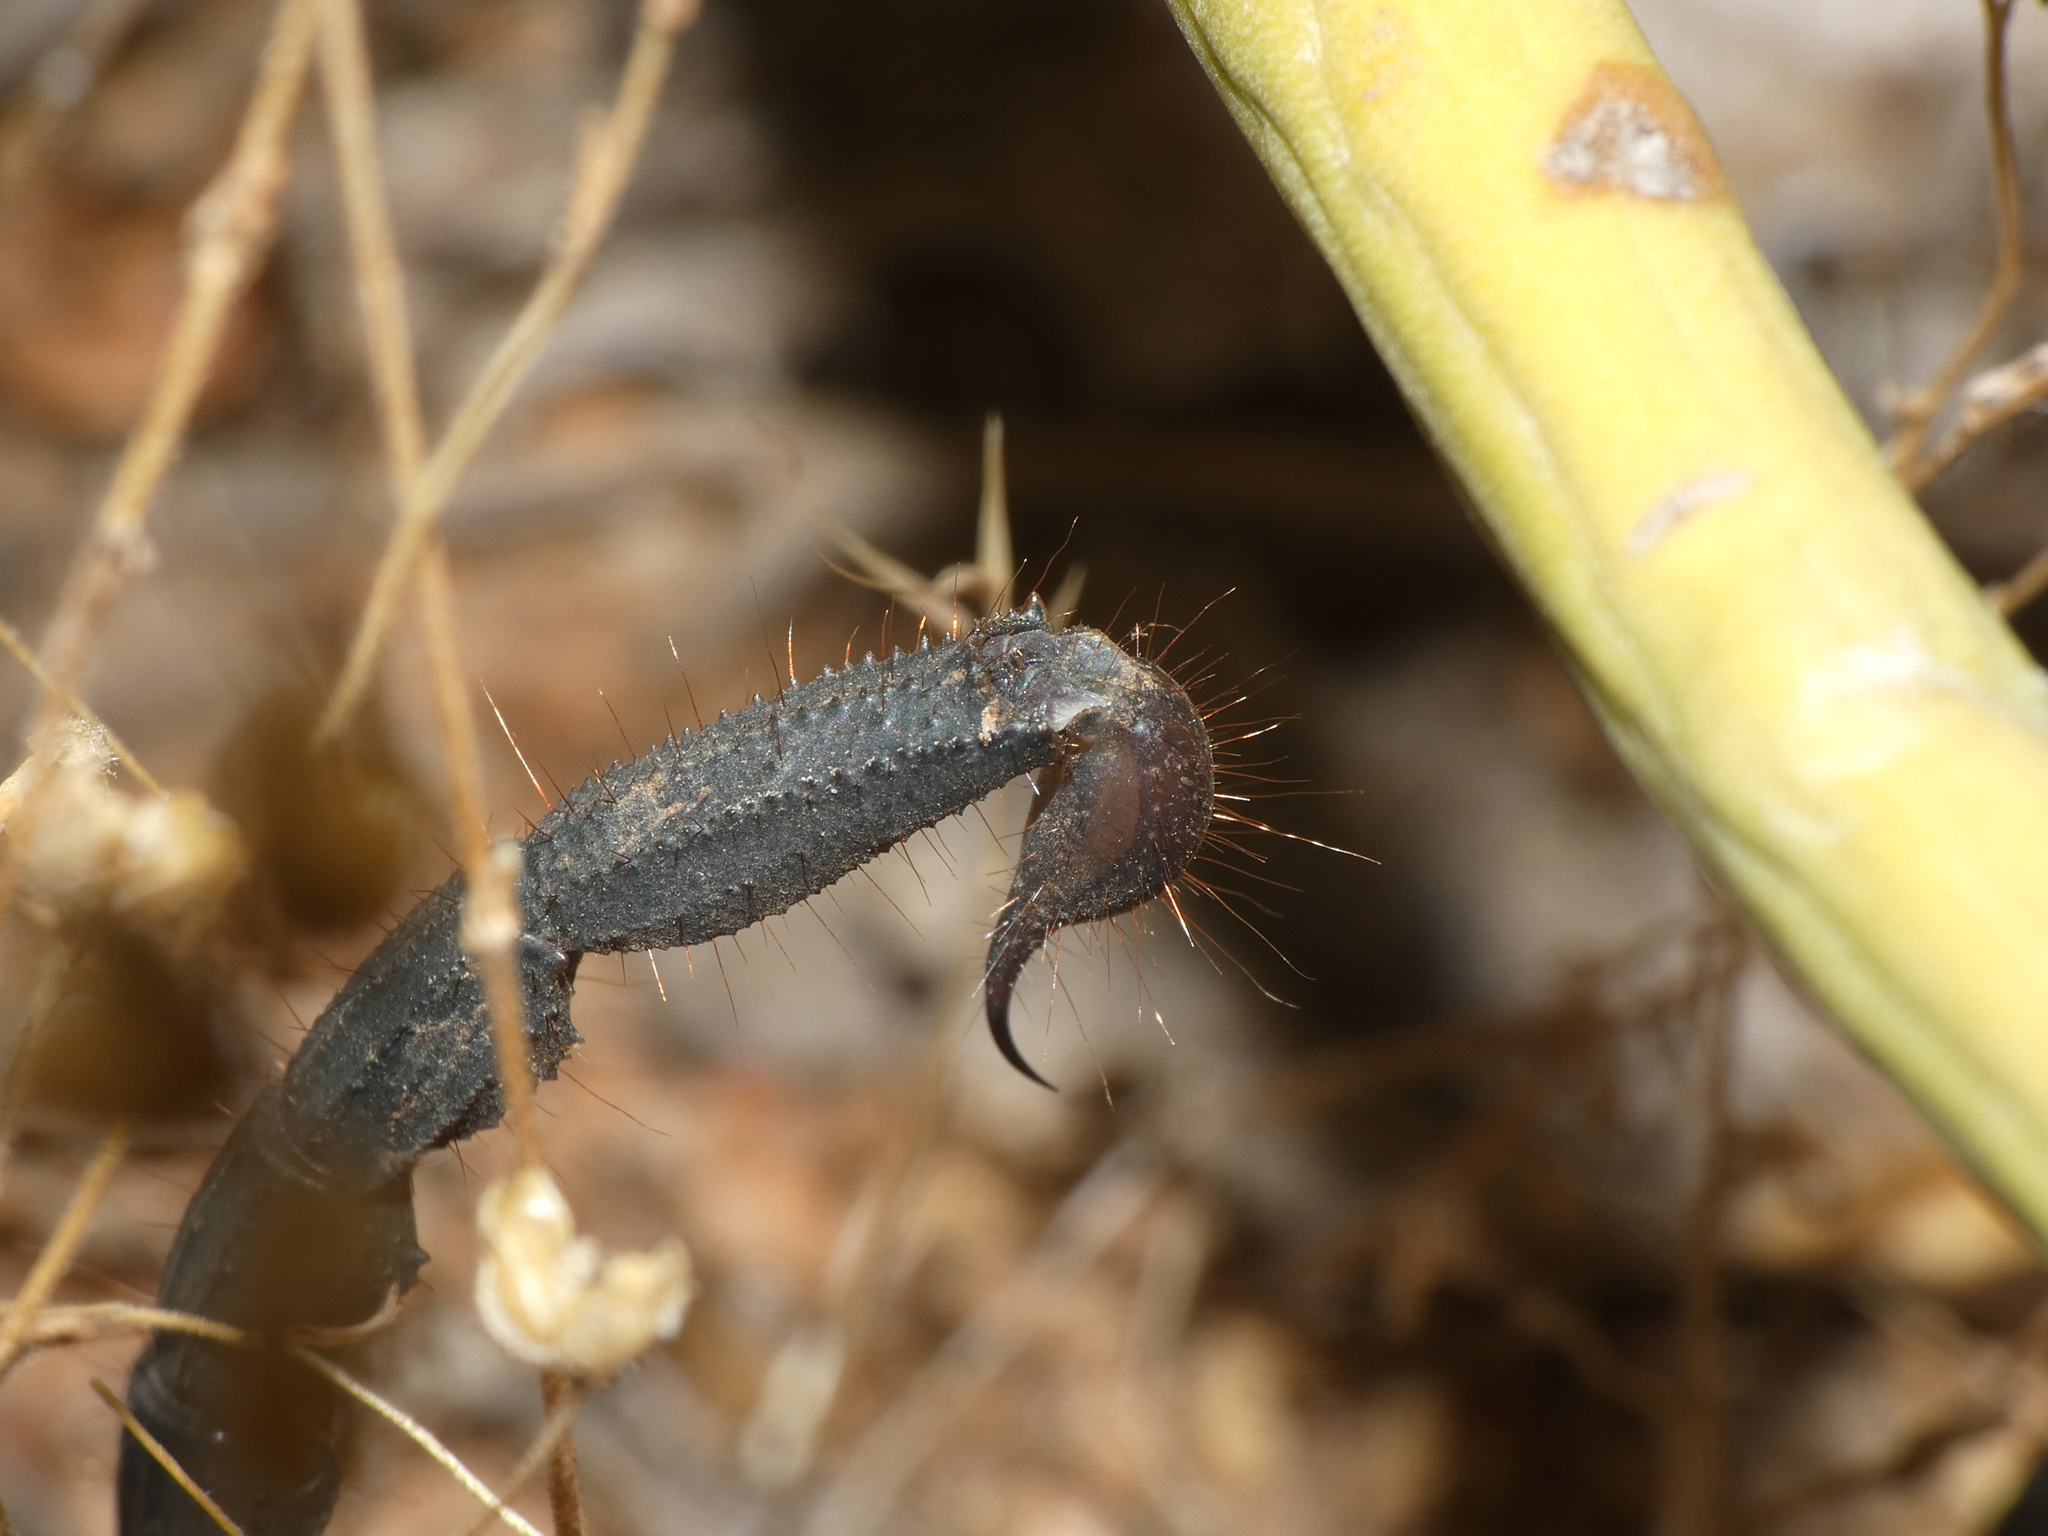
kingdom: Animalia
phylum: Arthropoda
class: Arachnida
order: Scorpiones
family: Scorpionidae
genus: Opistophthalmus
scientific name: Opistophthalmus peringueyi
